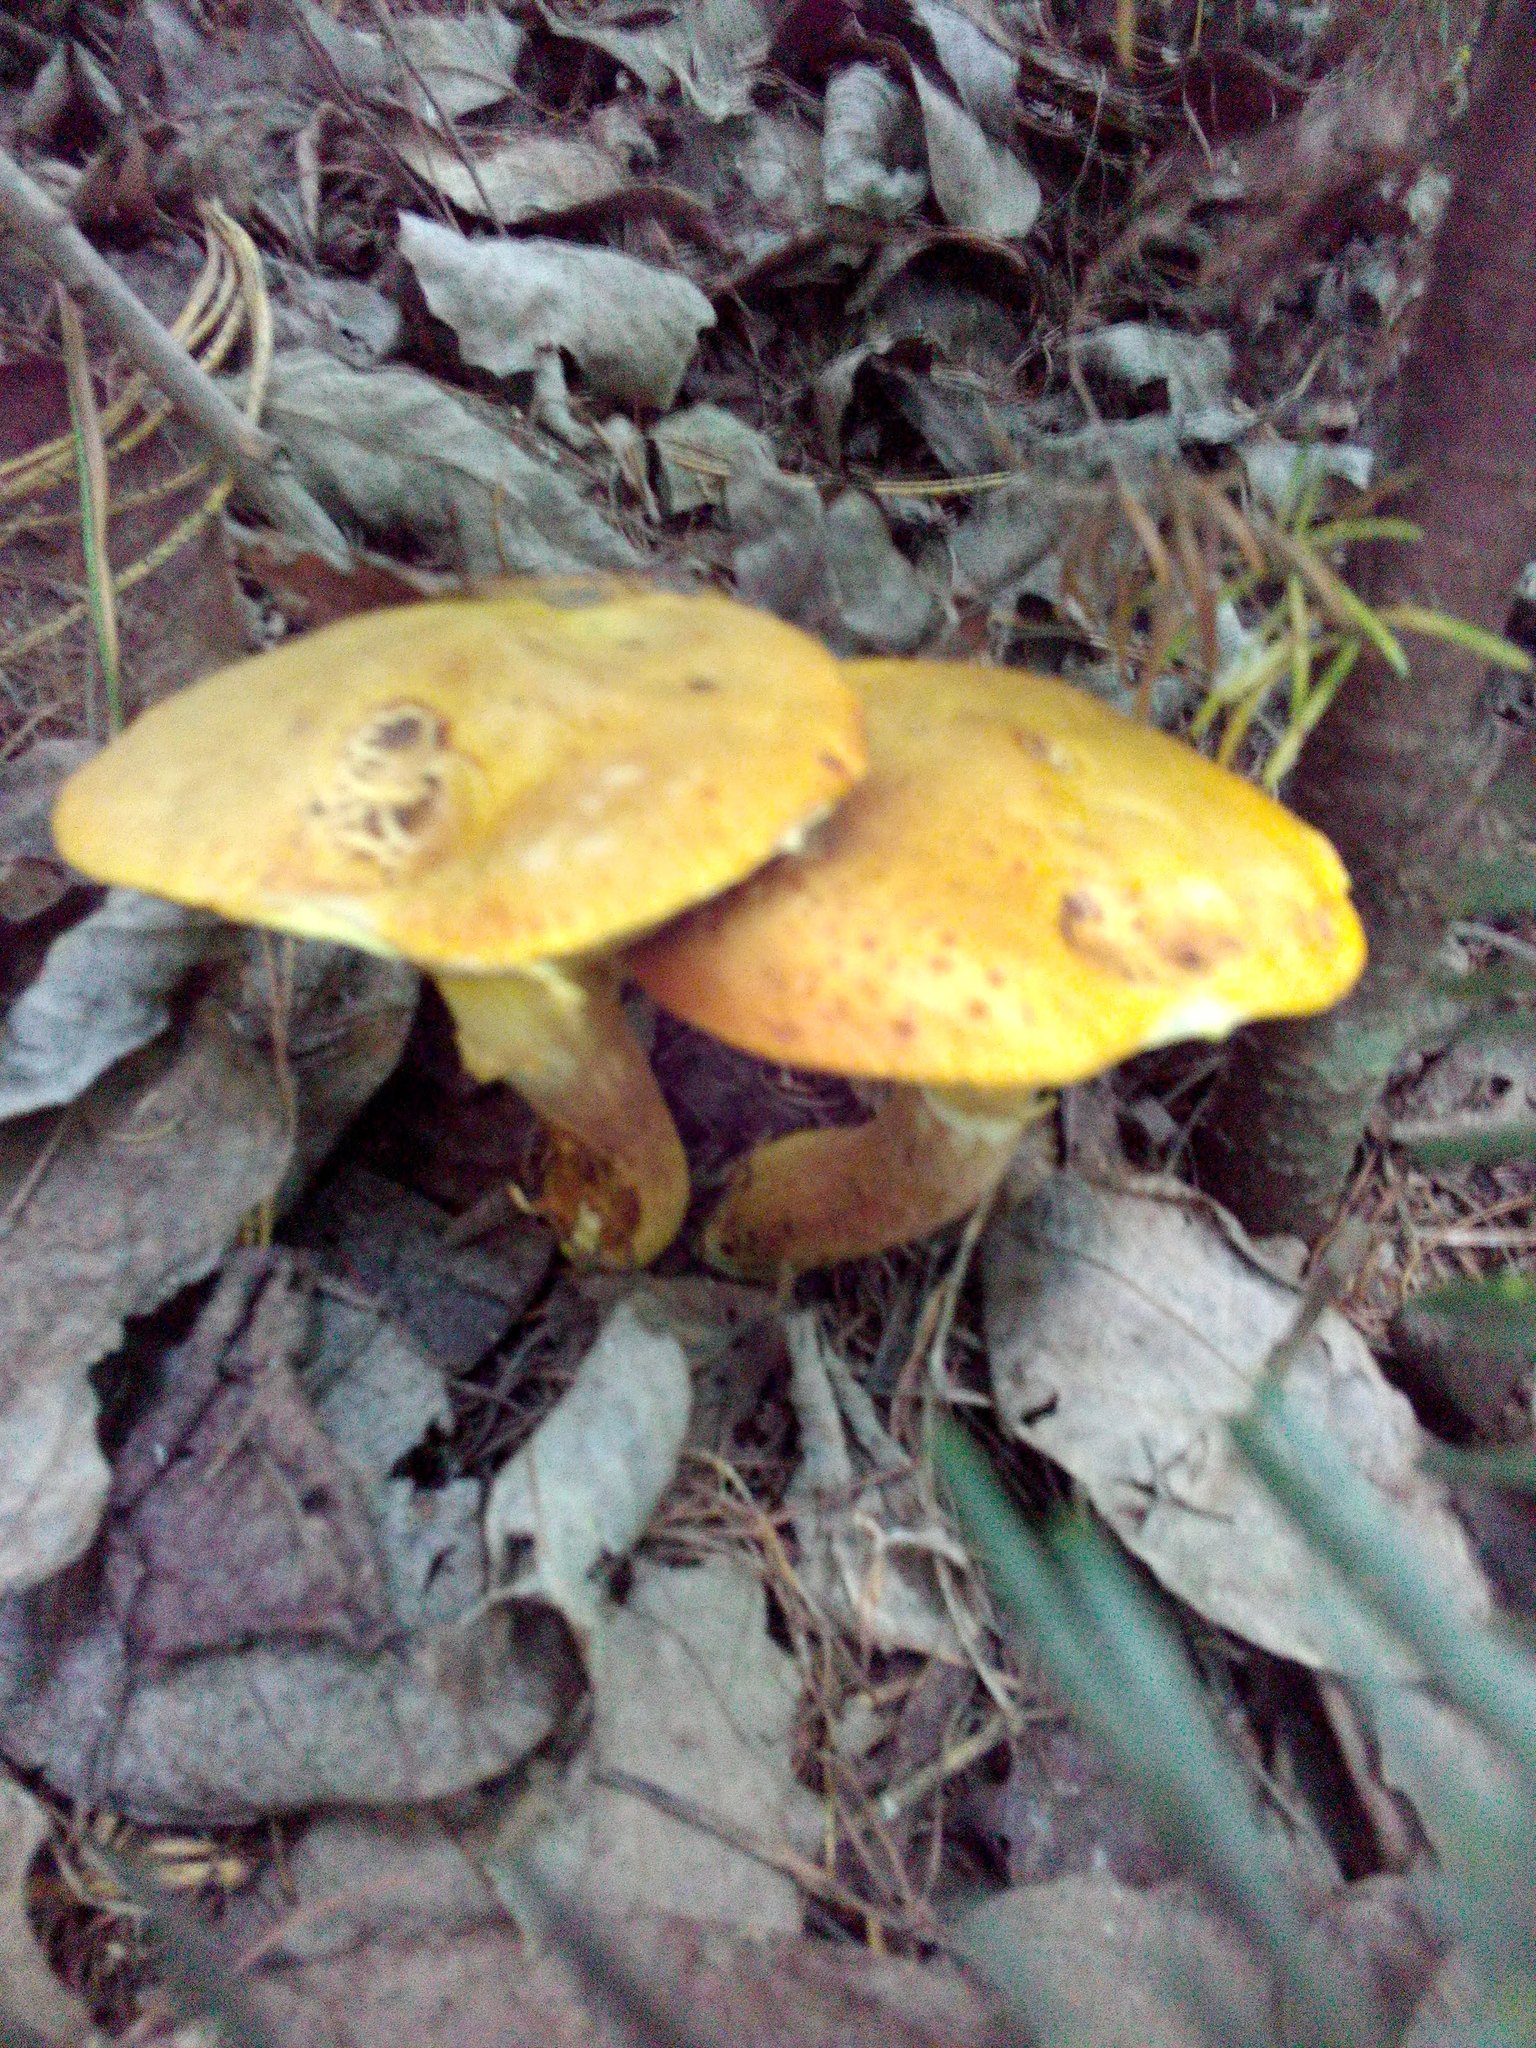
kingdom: Fungi
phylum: Basidiomycota
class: Agaricomycetes
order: Boletales
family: Suillaceae
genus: Suillus
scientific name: Suillus grevillei
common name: Larch bolete
